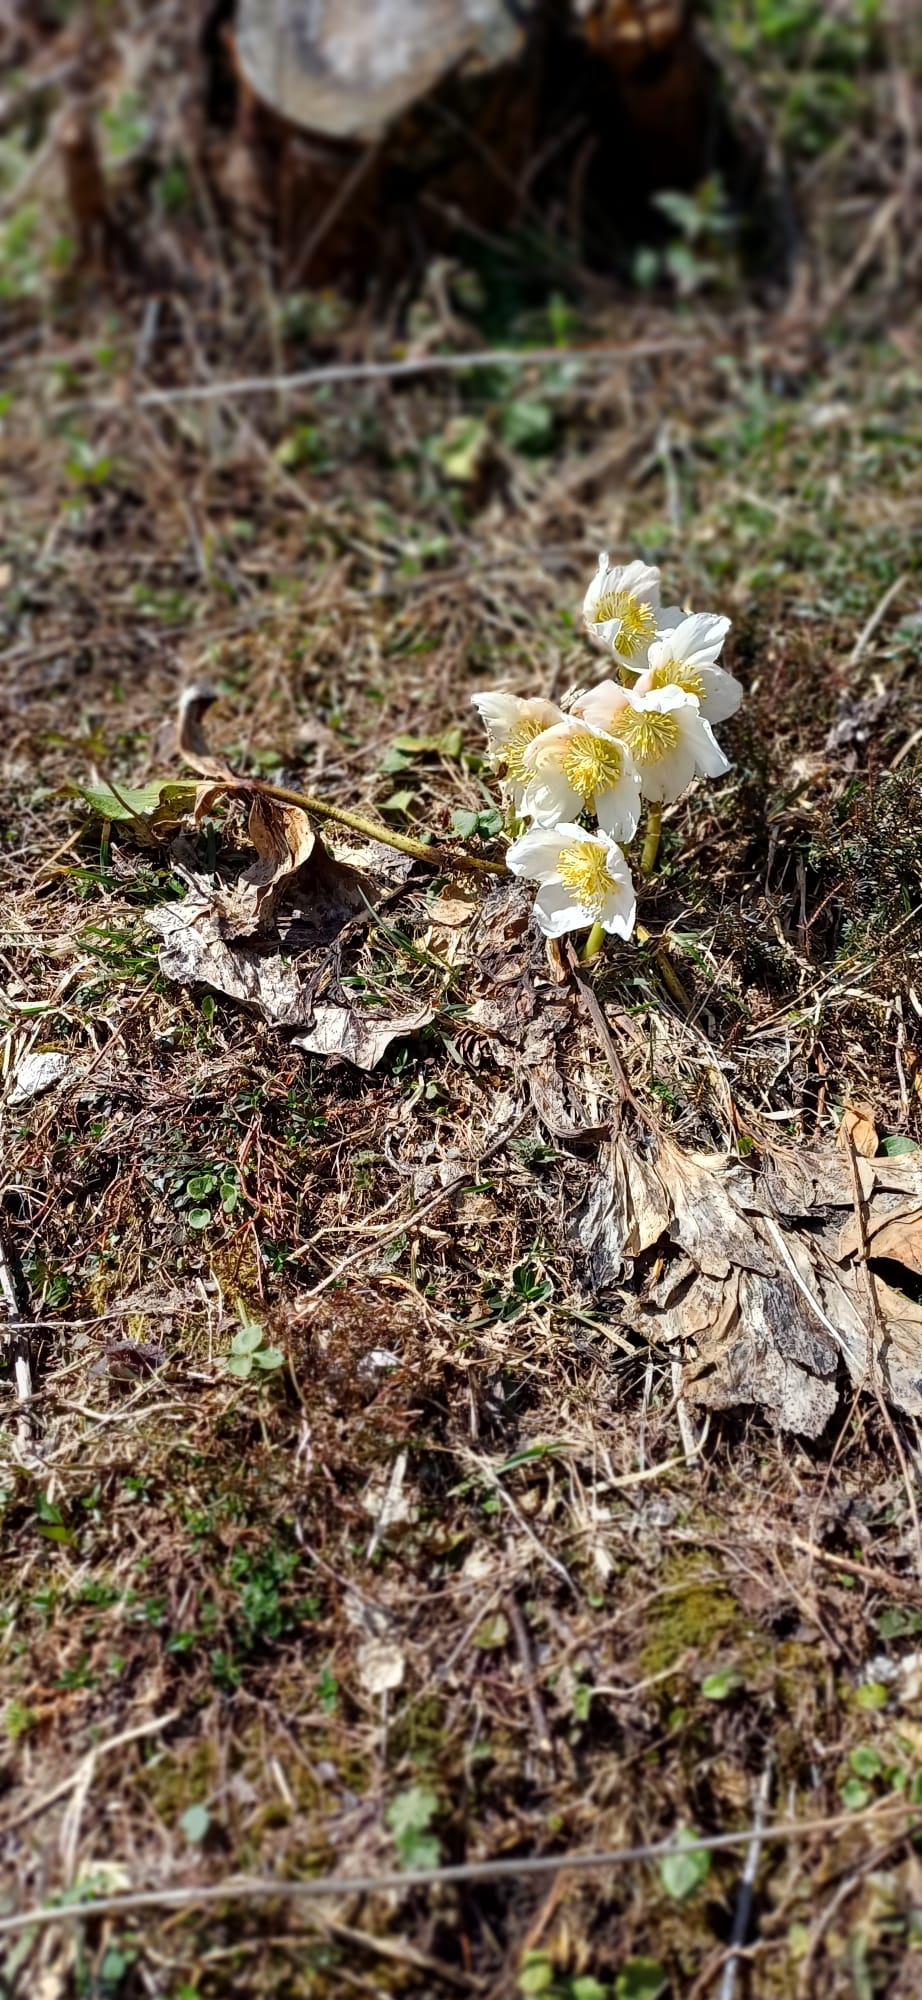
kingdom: Plantae
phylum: Tracheophyta
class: Magnoliopsida
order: Ranunculales
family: Ranunculaceae
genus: Helleborus
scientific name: Helleborus niger
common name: Black hellebore
